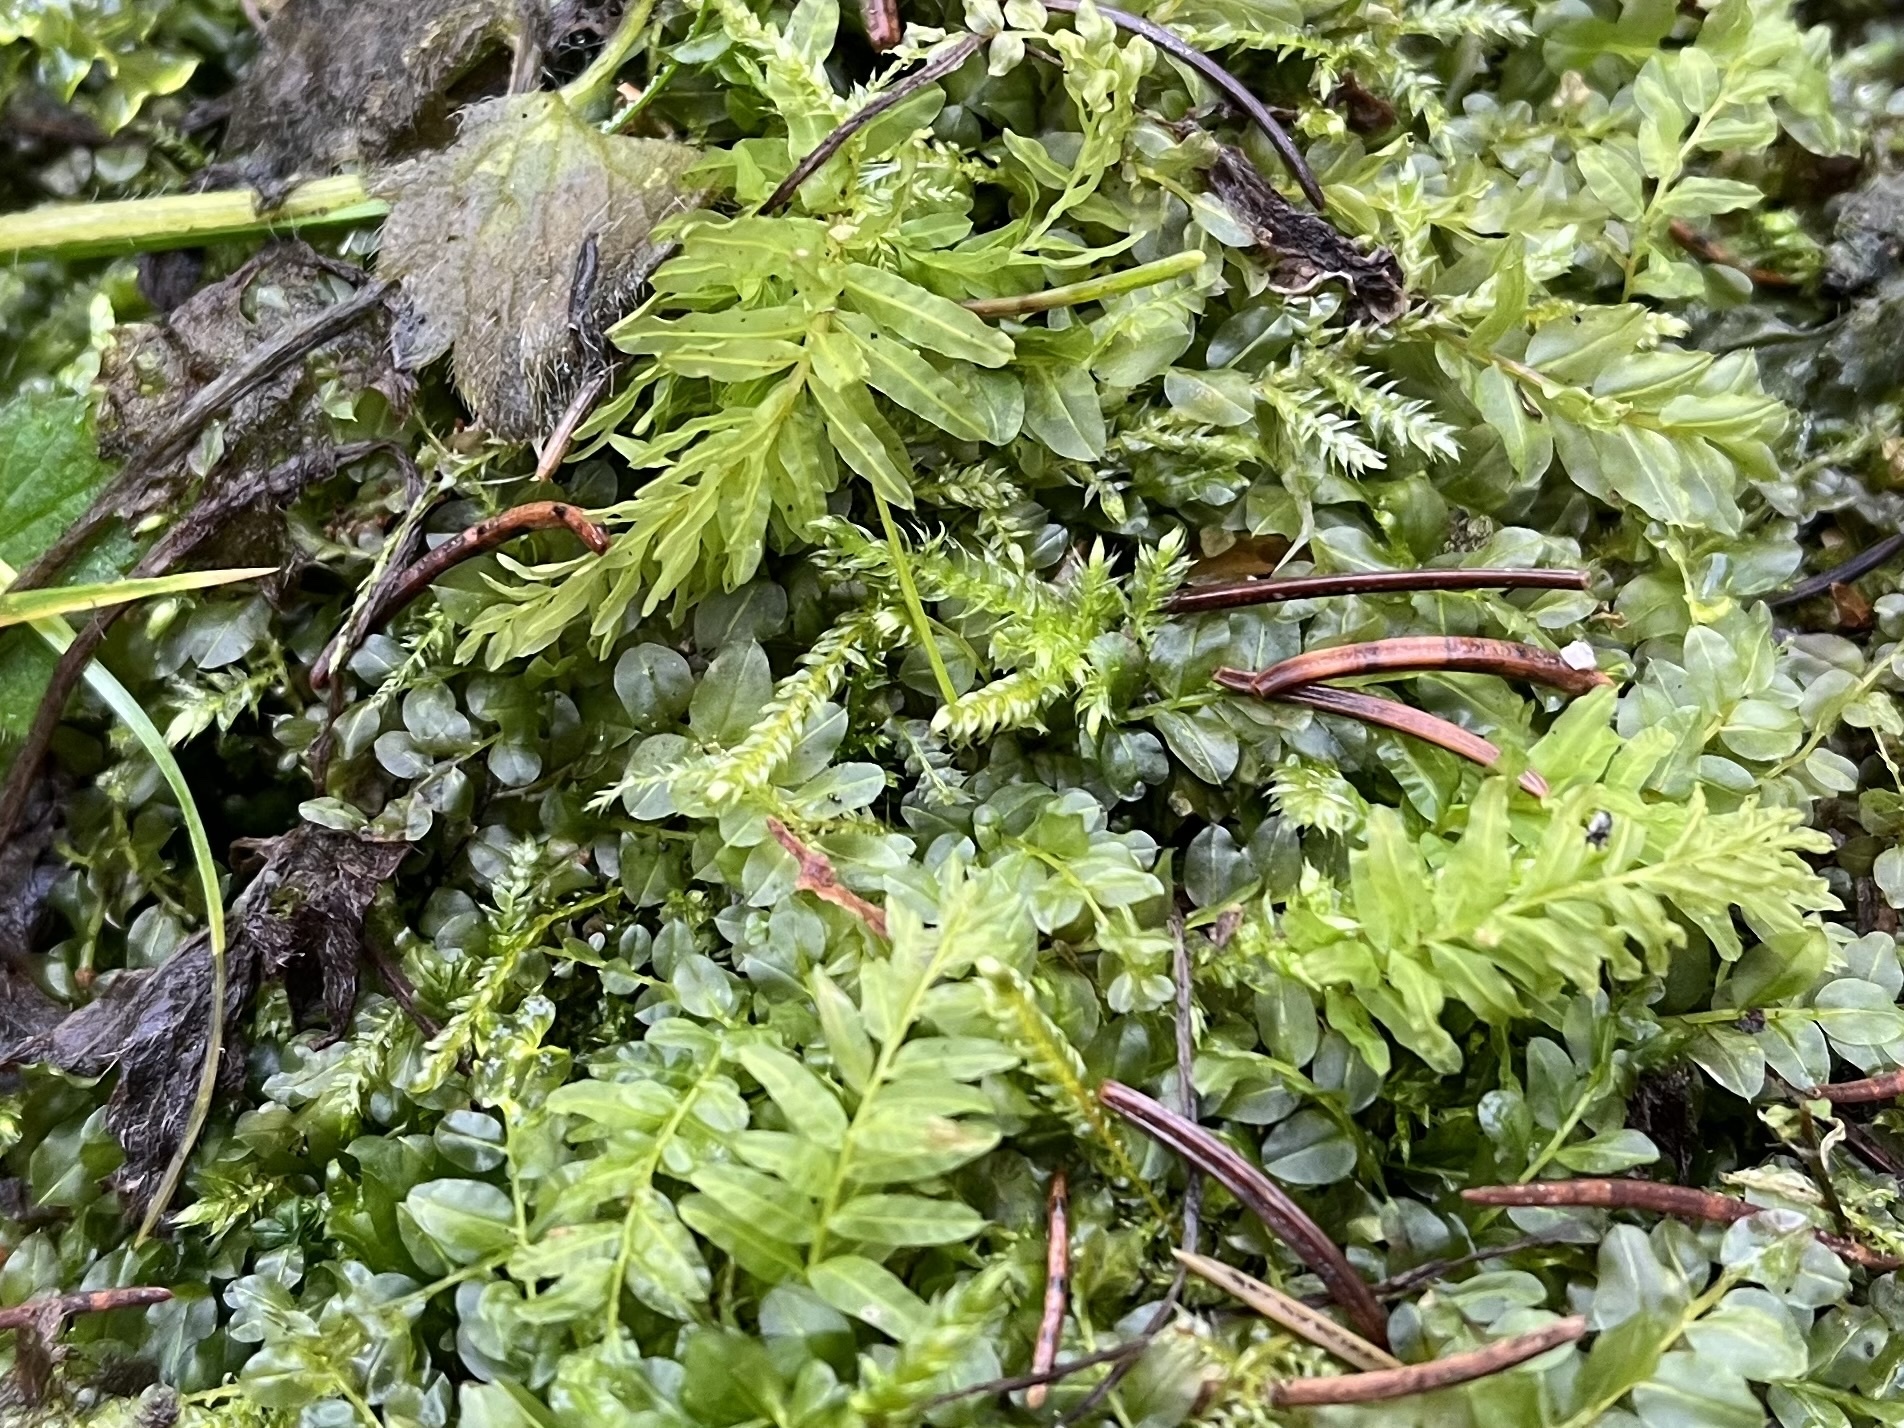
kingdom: Plantae
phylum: Bryophyta
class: Bryopsida
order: Bryales
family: Mniaceae
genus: Plagiomnium
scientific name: Plagiomnium undulatum
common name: Hart's-tongue thyme-moss
